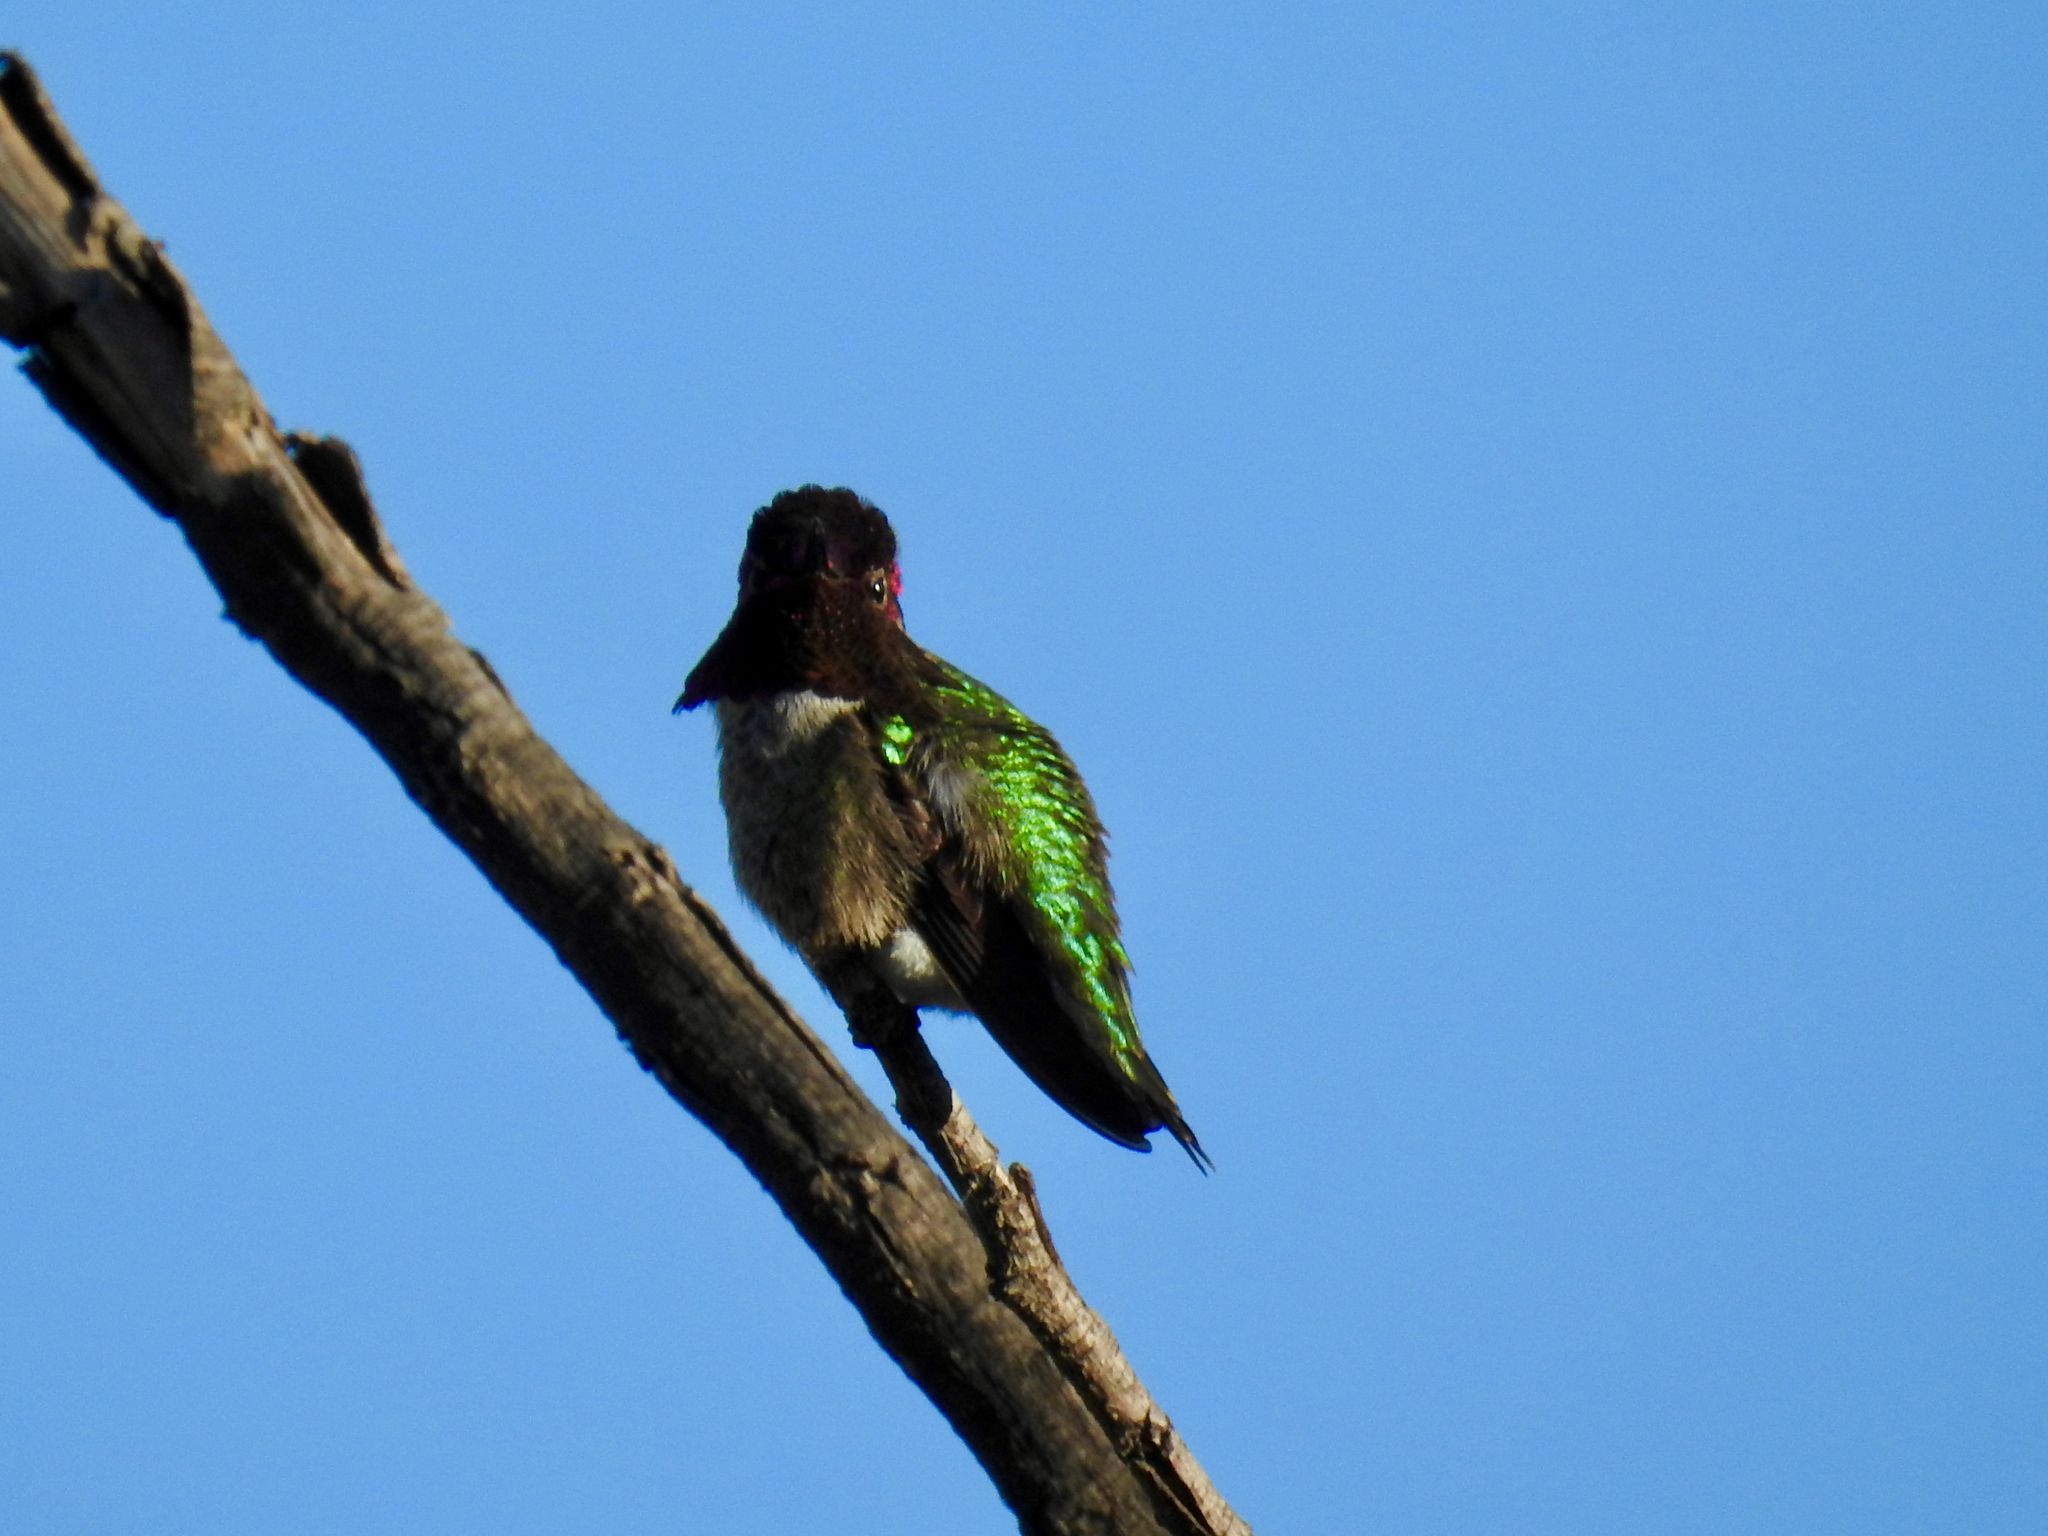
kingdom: Animalia
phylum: Chordata
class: Aves
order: Apodiformes
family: Trochilidae
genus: Calypte
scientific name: Calypte anna
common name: Anna's hummingbird
